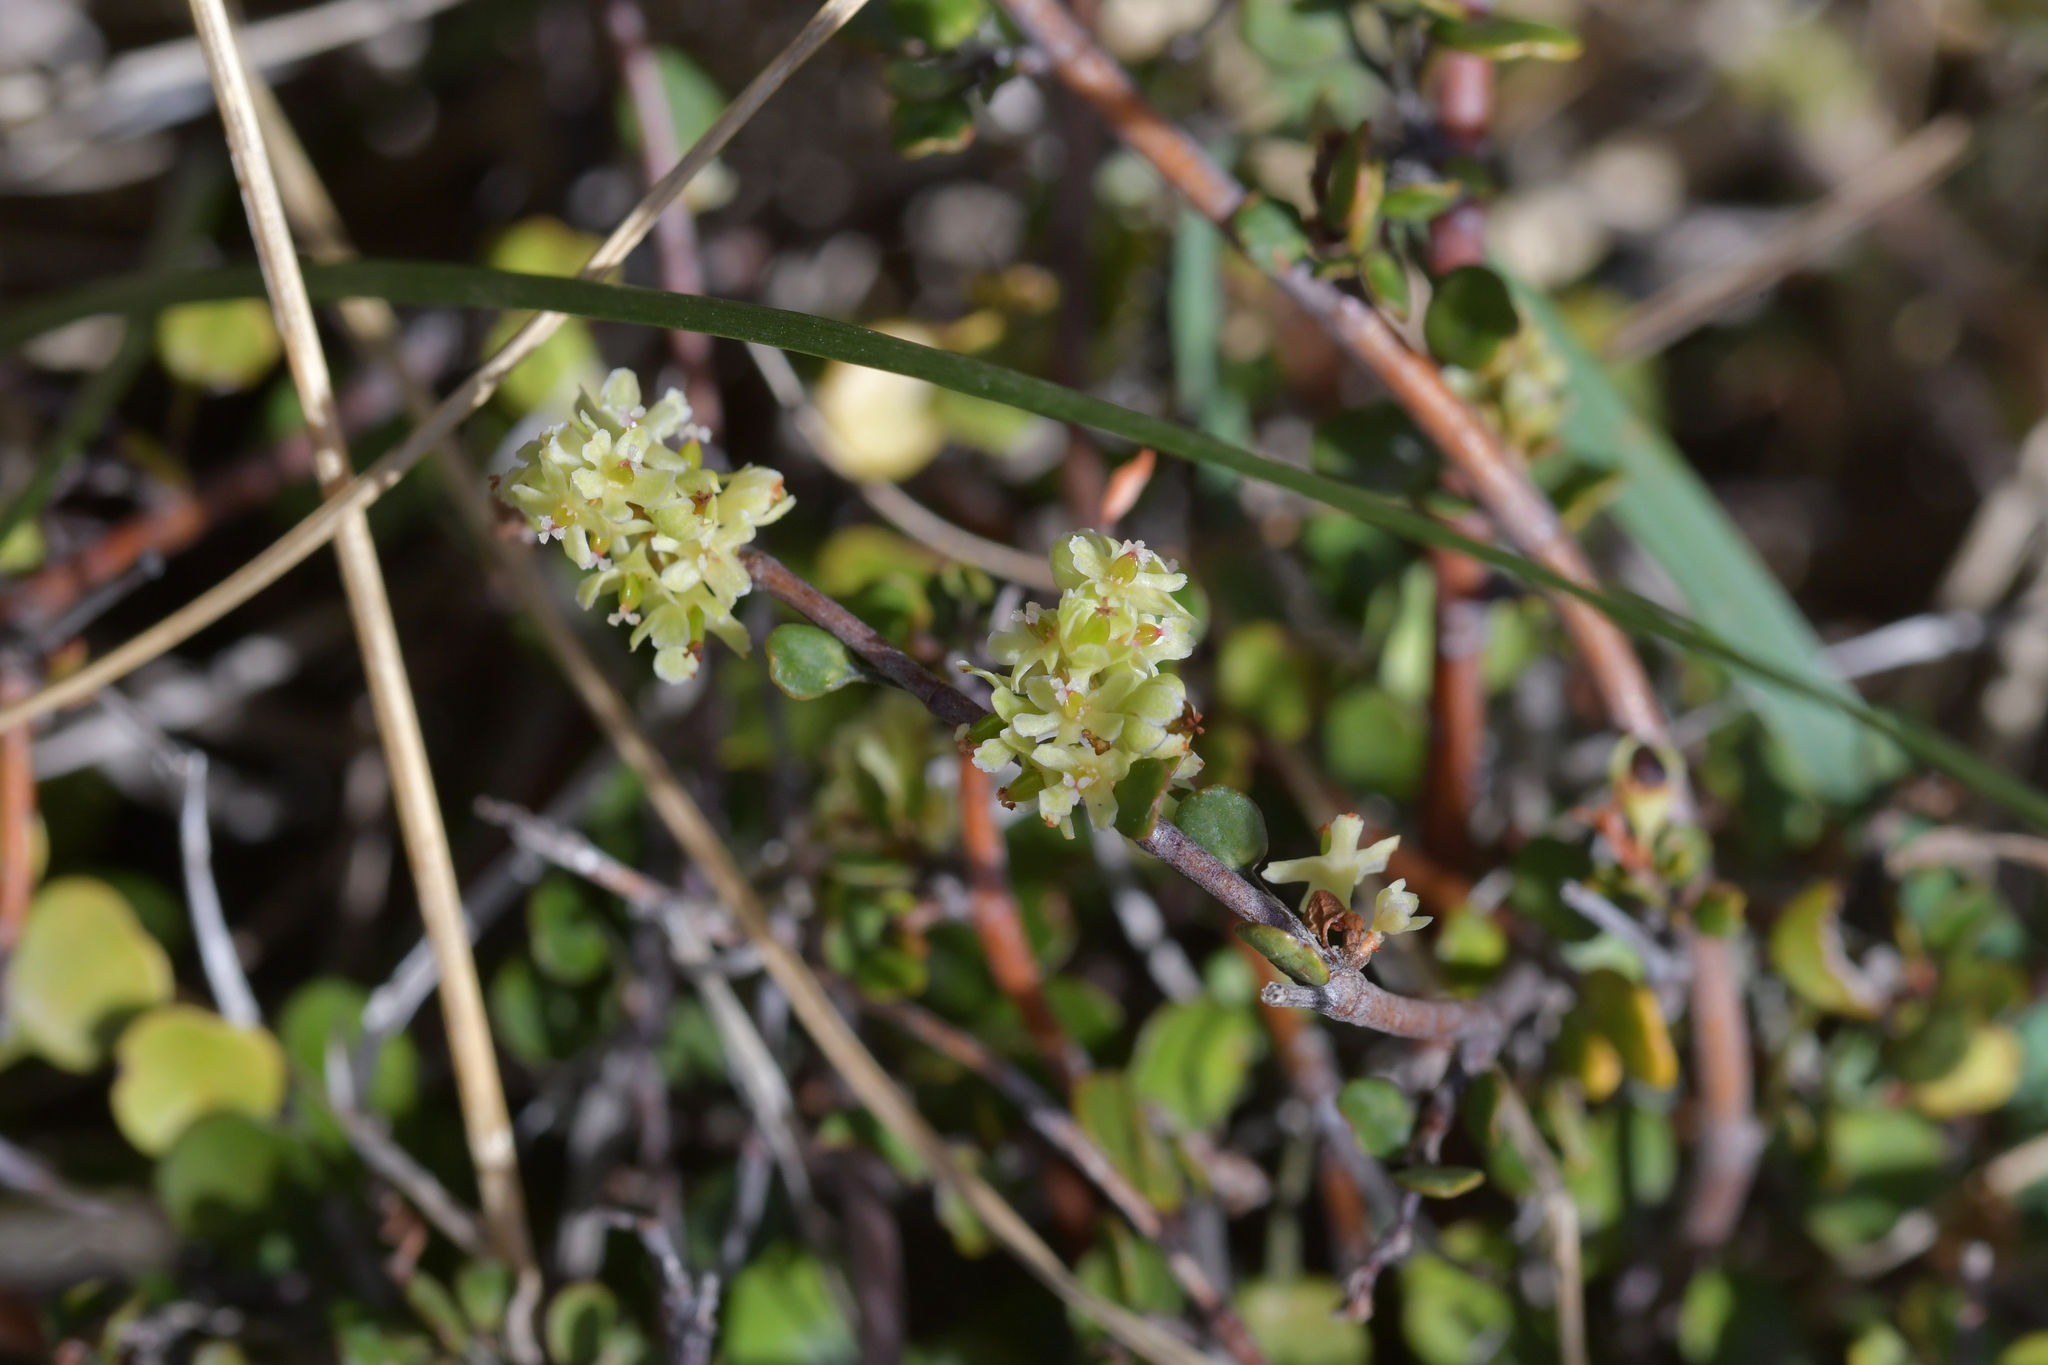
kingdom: Plantae
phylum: Tracheophyta
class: Magnoliopsida
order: Caryophyllales
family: Polygonaceae
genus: Muehlenbeckia
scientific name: Muehlenbeckia complexa
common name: Wireplant
